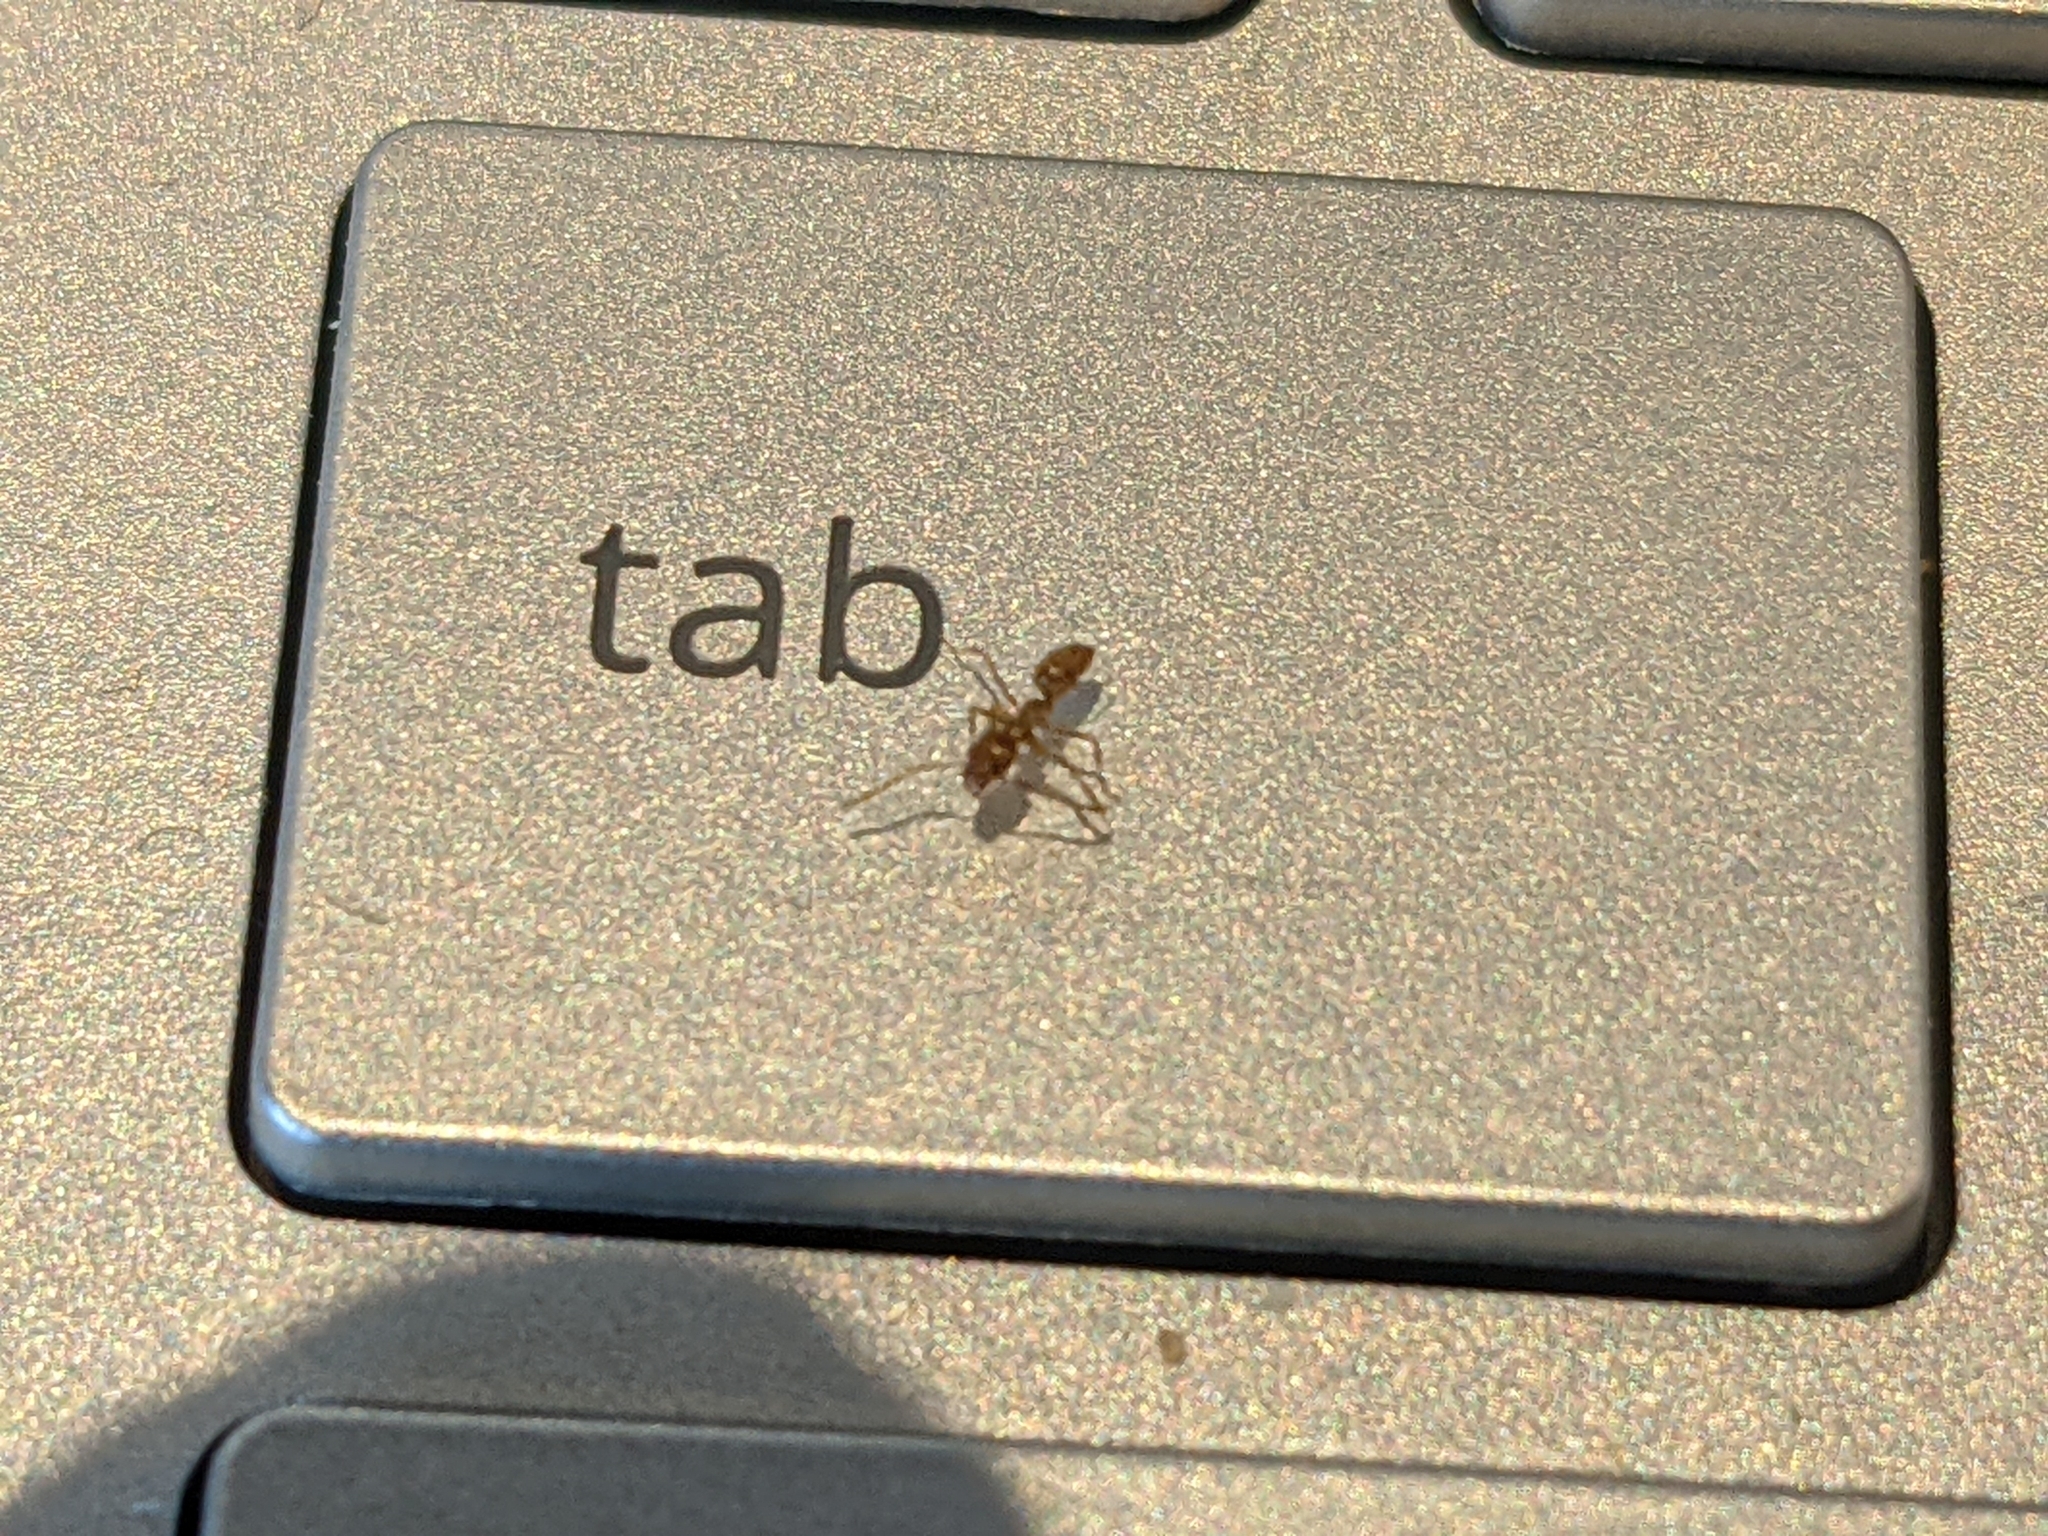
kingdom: Animalia
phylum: Arthropoda
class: Insecta
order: Hymenoptera
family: Formicidae
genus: Linepithema
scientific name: Linepithema humile
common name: Argentine ant
